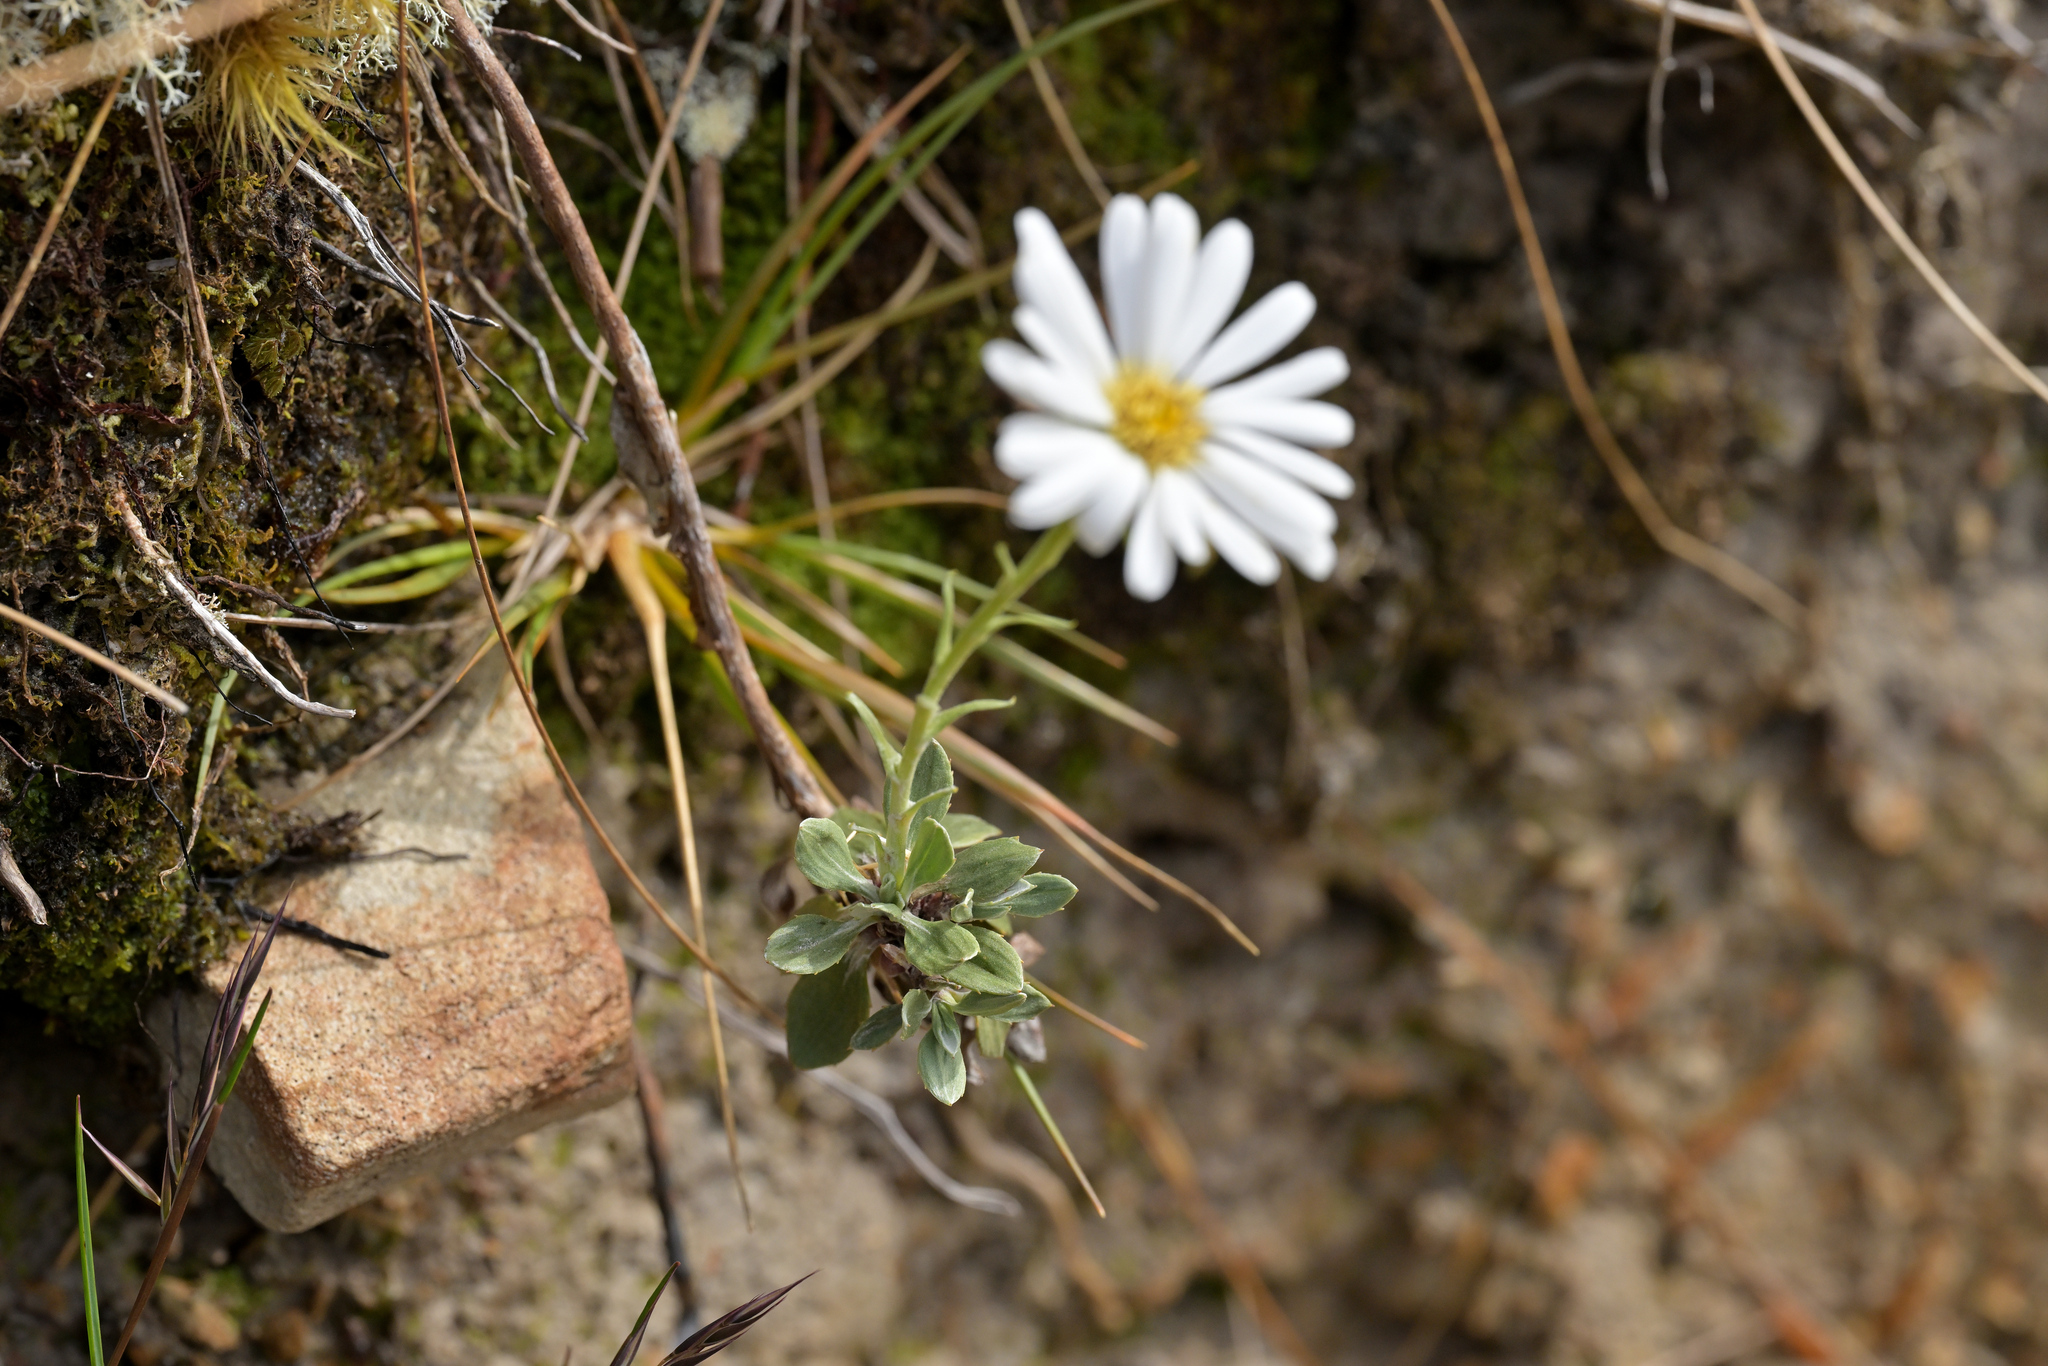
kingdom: Plantae
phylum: Tracheophyta
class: Magnoliopsida
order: Asterales
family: Asteraceae
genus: Celmisia
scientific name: Celmisia discolor
